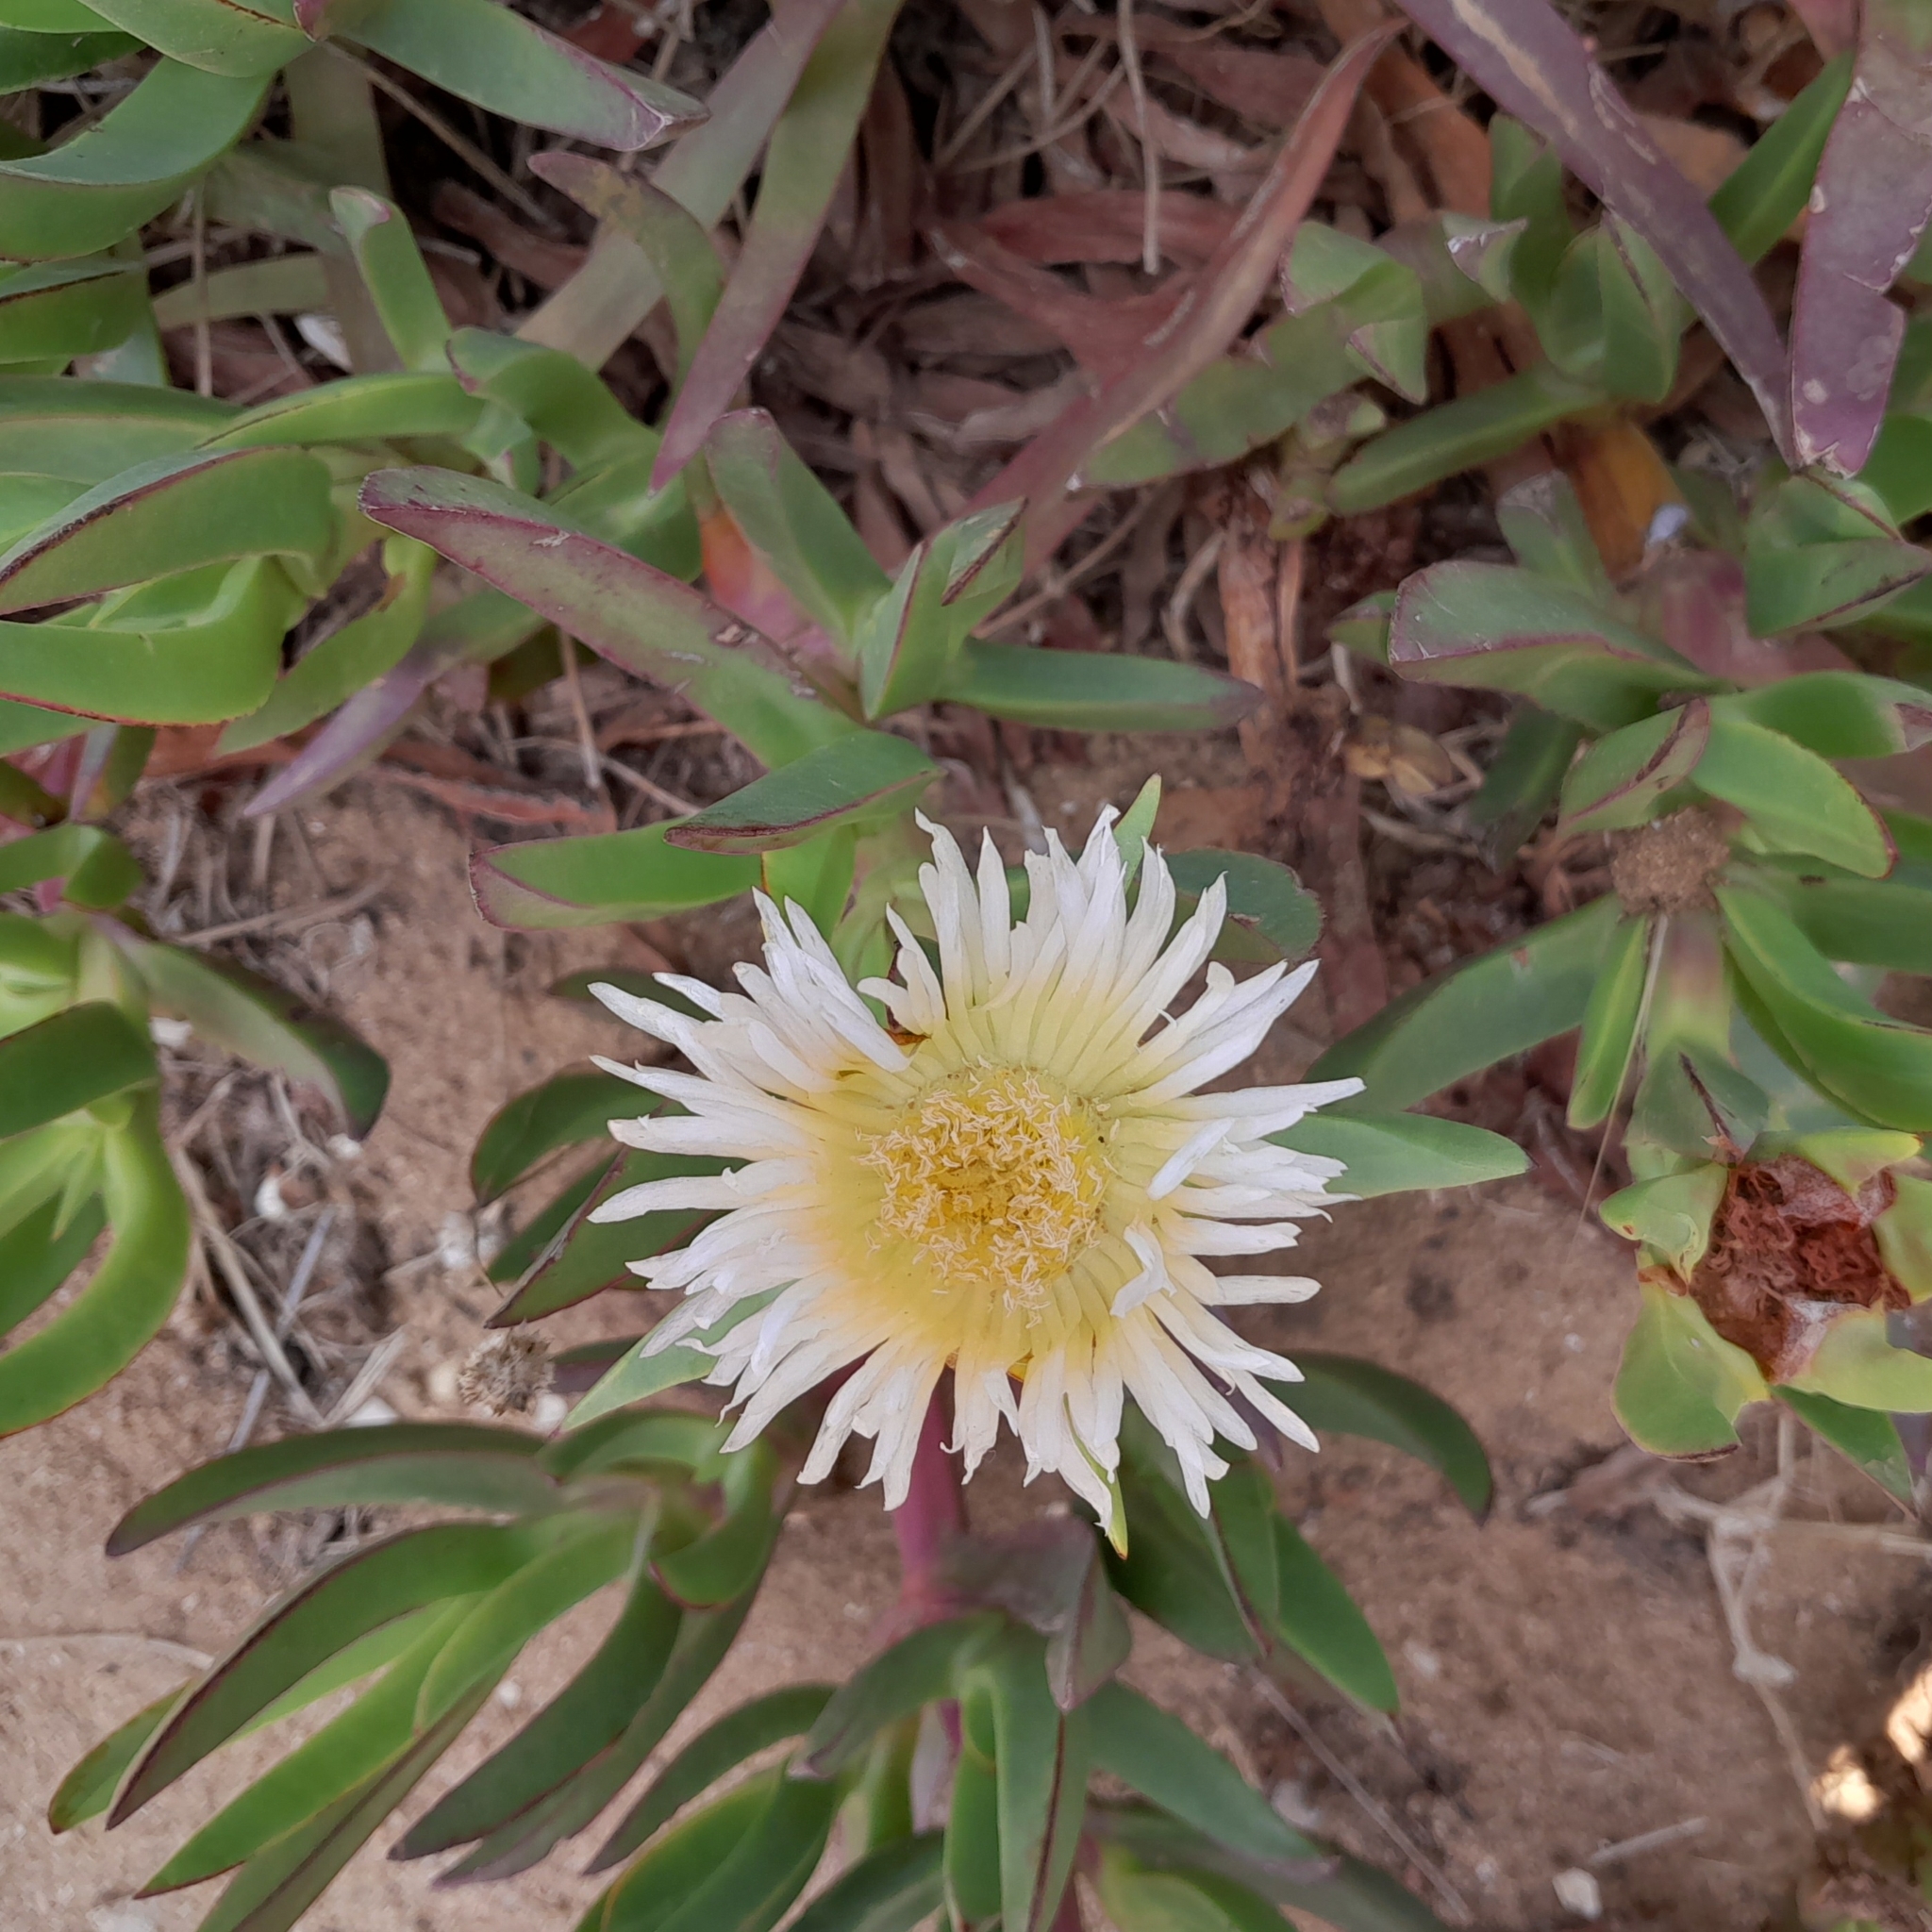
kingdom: Plantae
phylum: Tracheophyta
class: Magnoliopsida
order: Caryophyllales
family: Aizoaceae
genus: Carpobrotus
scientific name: Carpobrotus edulis
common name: Hottentot-fig
